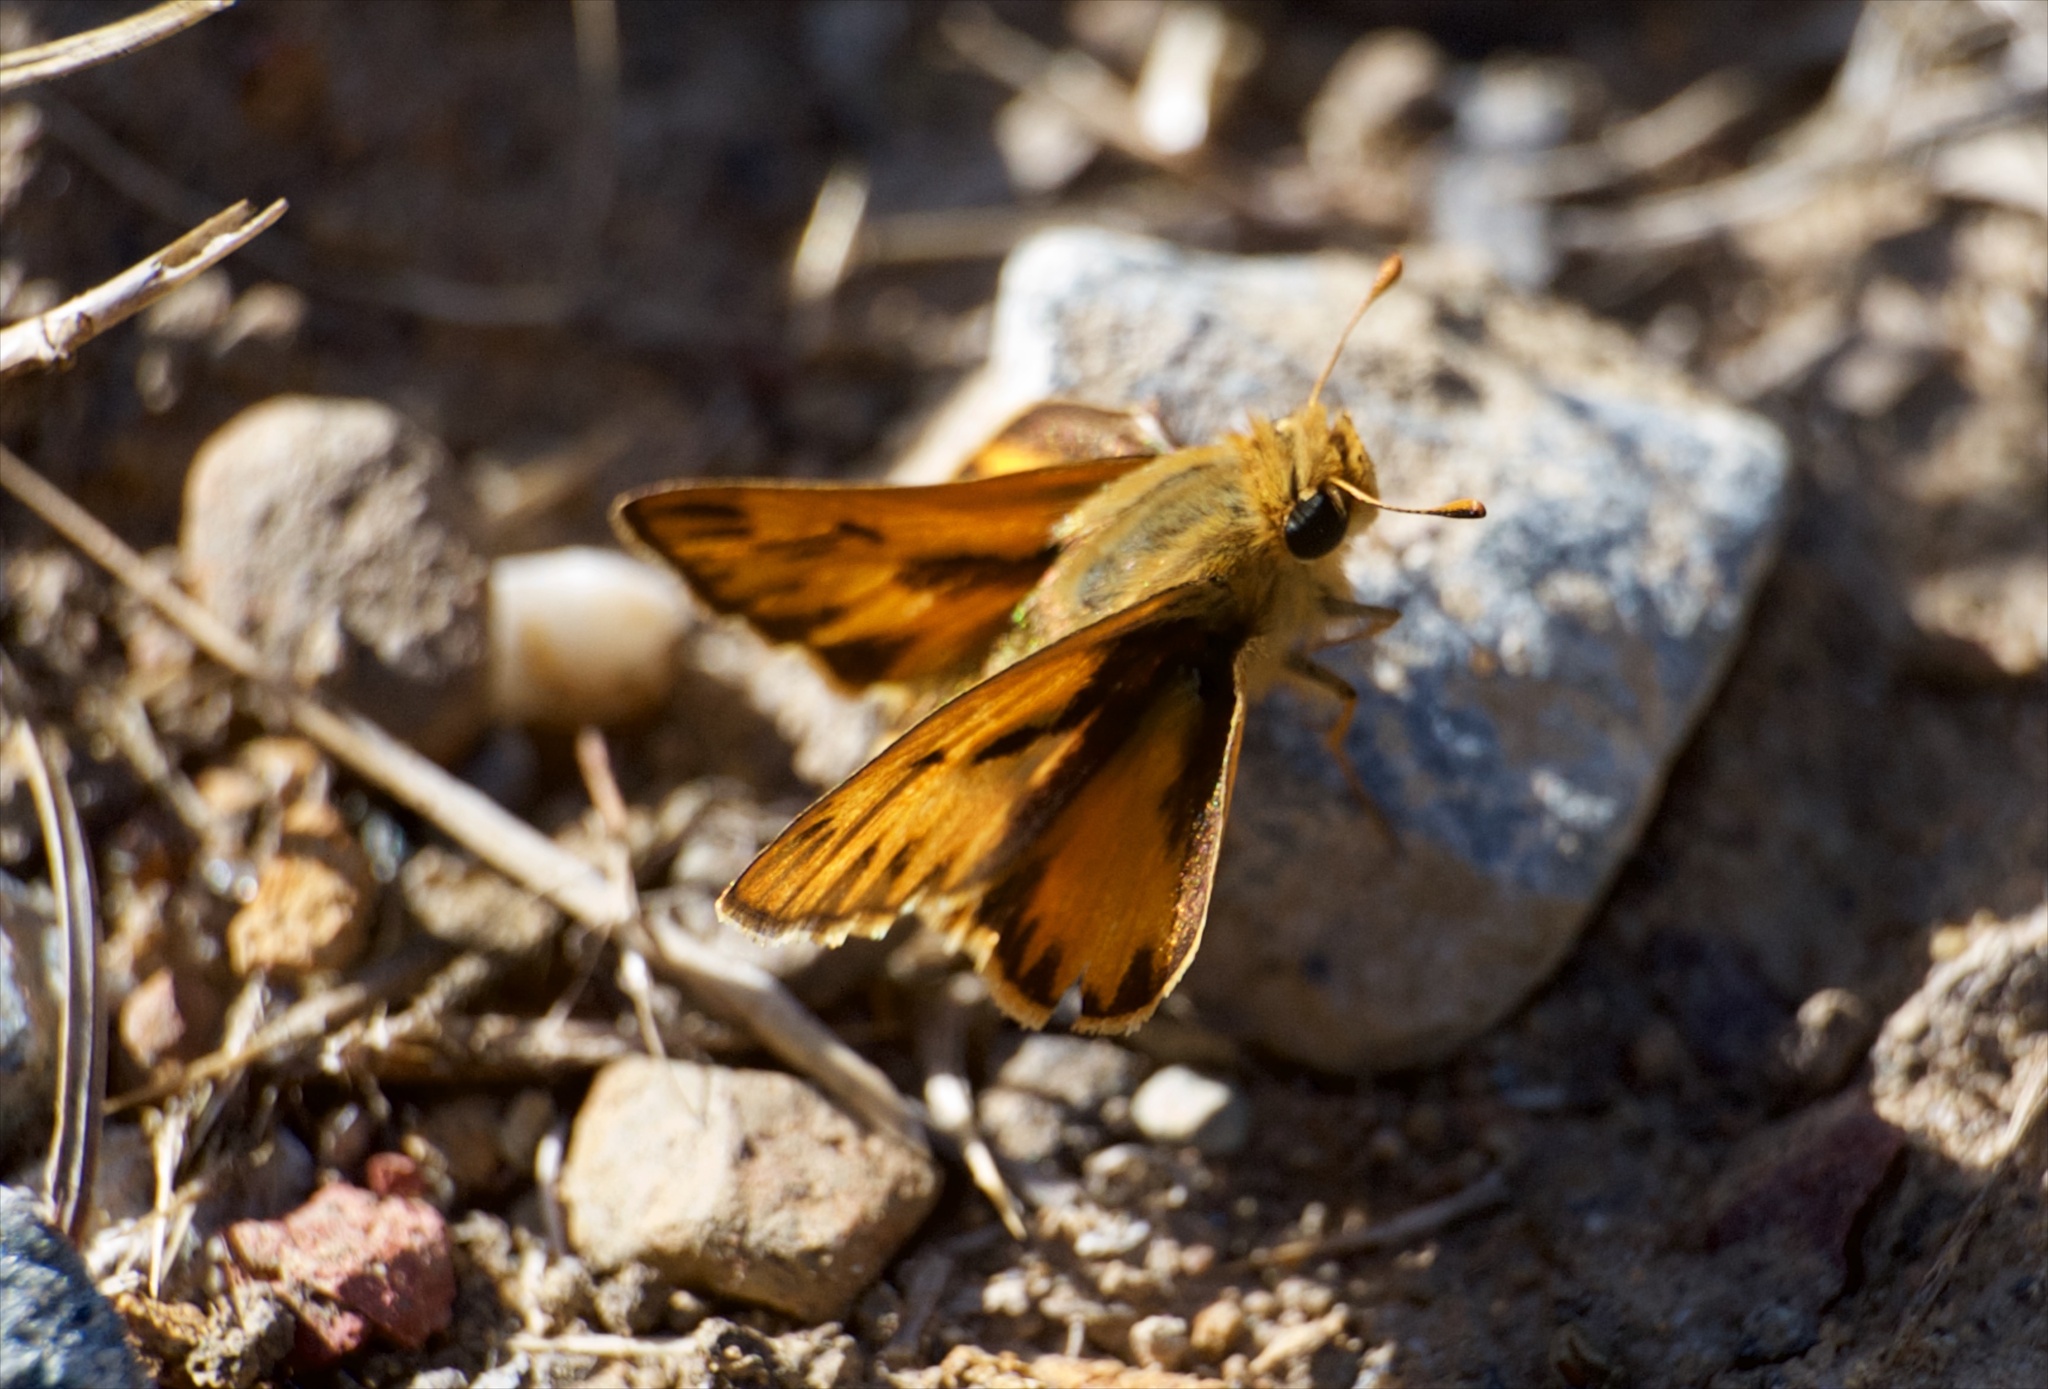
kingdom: Animalia
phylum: Arthropoda
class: Insecta
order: Lepidoptera
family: Hesperiidae
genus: Hylephila
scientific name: Hylephila phyleus
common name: Fiery skipper
